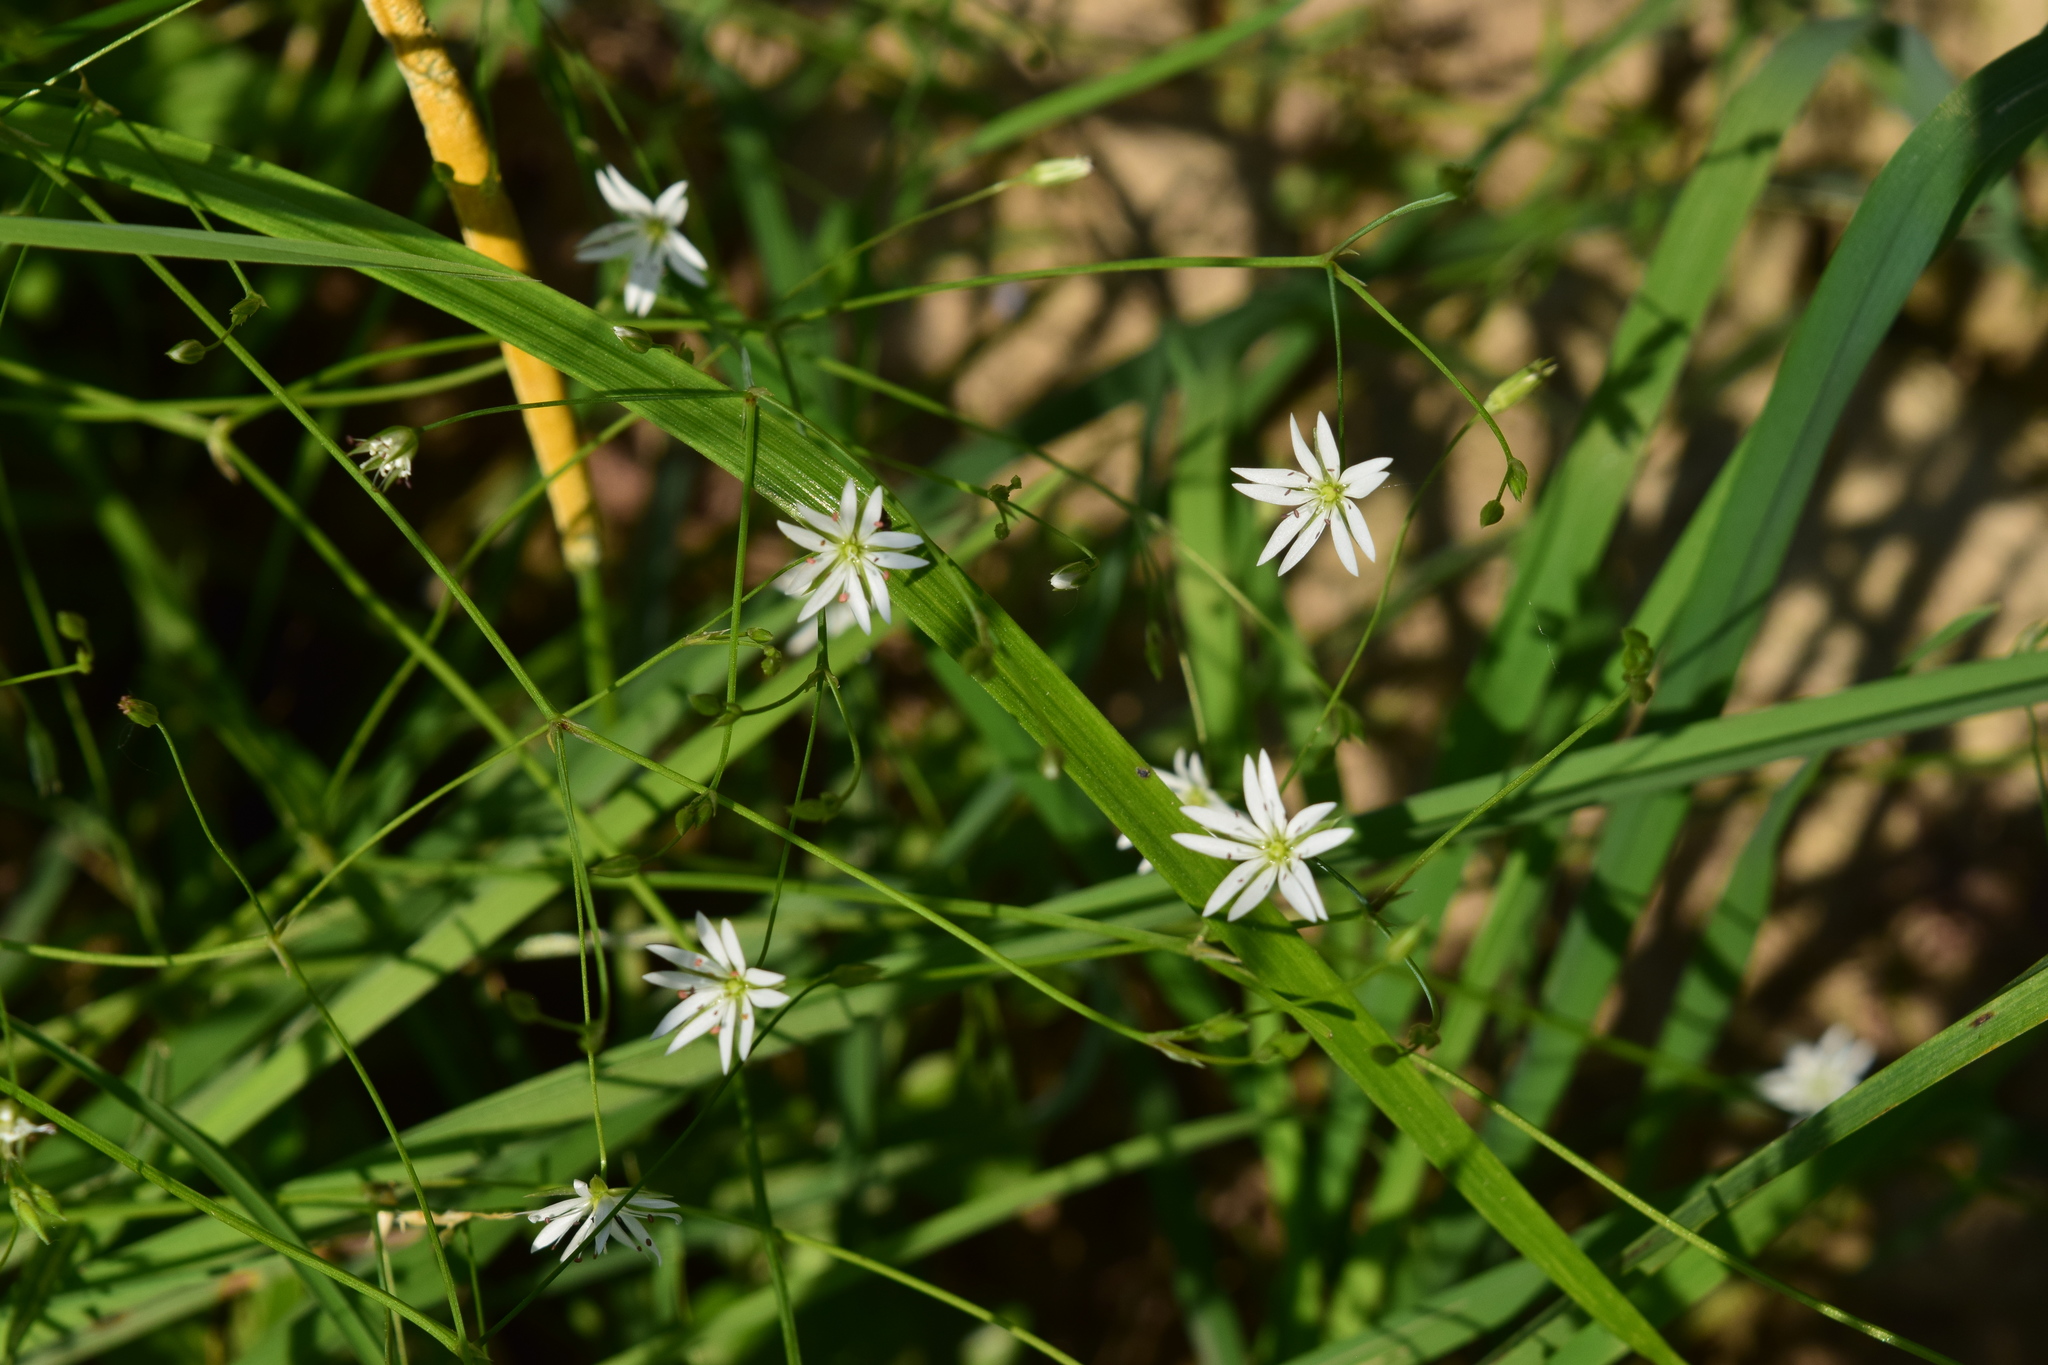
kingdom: Plantae
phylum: Tracheophyta
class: Magnoliopsida
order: Caryophyllales
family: Caryophyllaceae
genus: Stellaria
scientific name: Stellaria graminea
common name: Grass-like starwort
